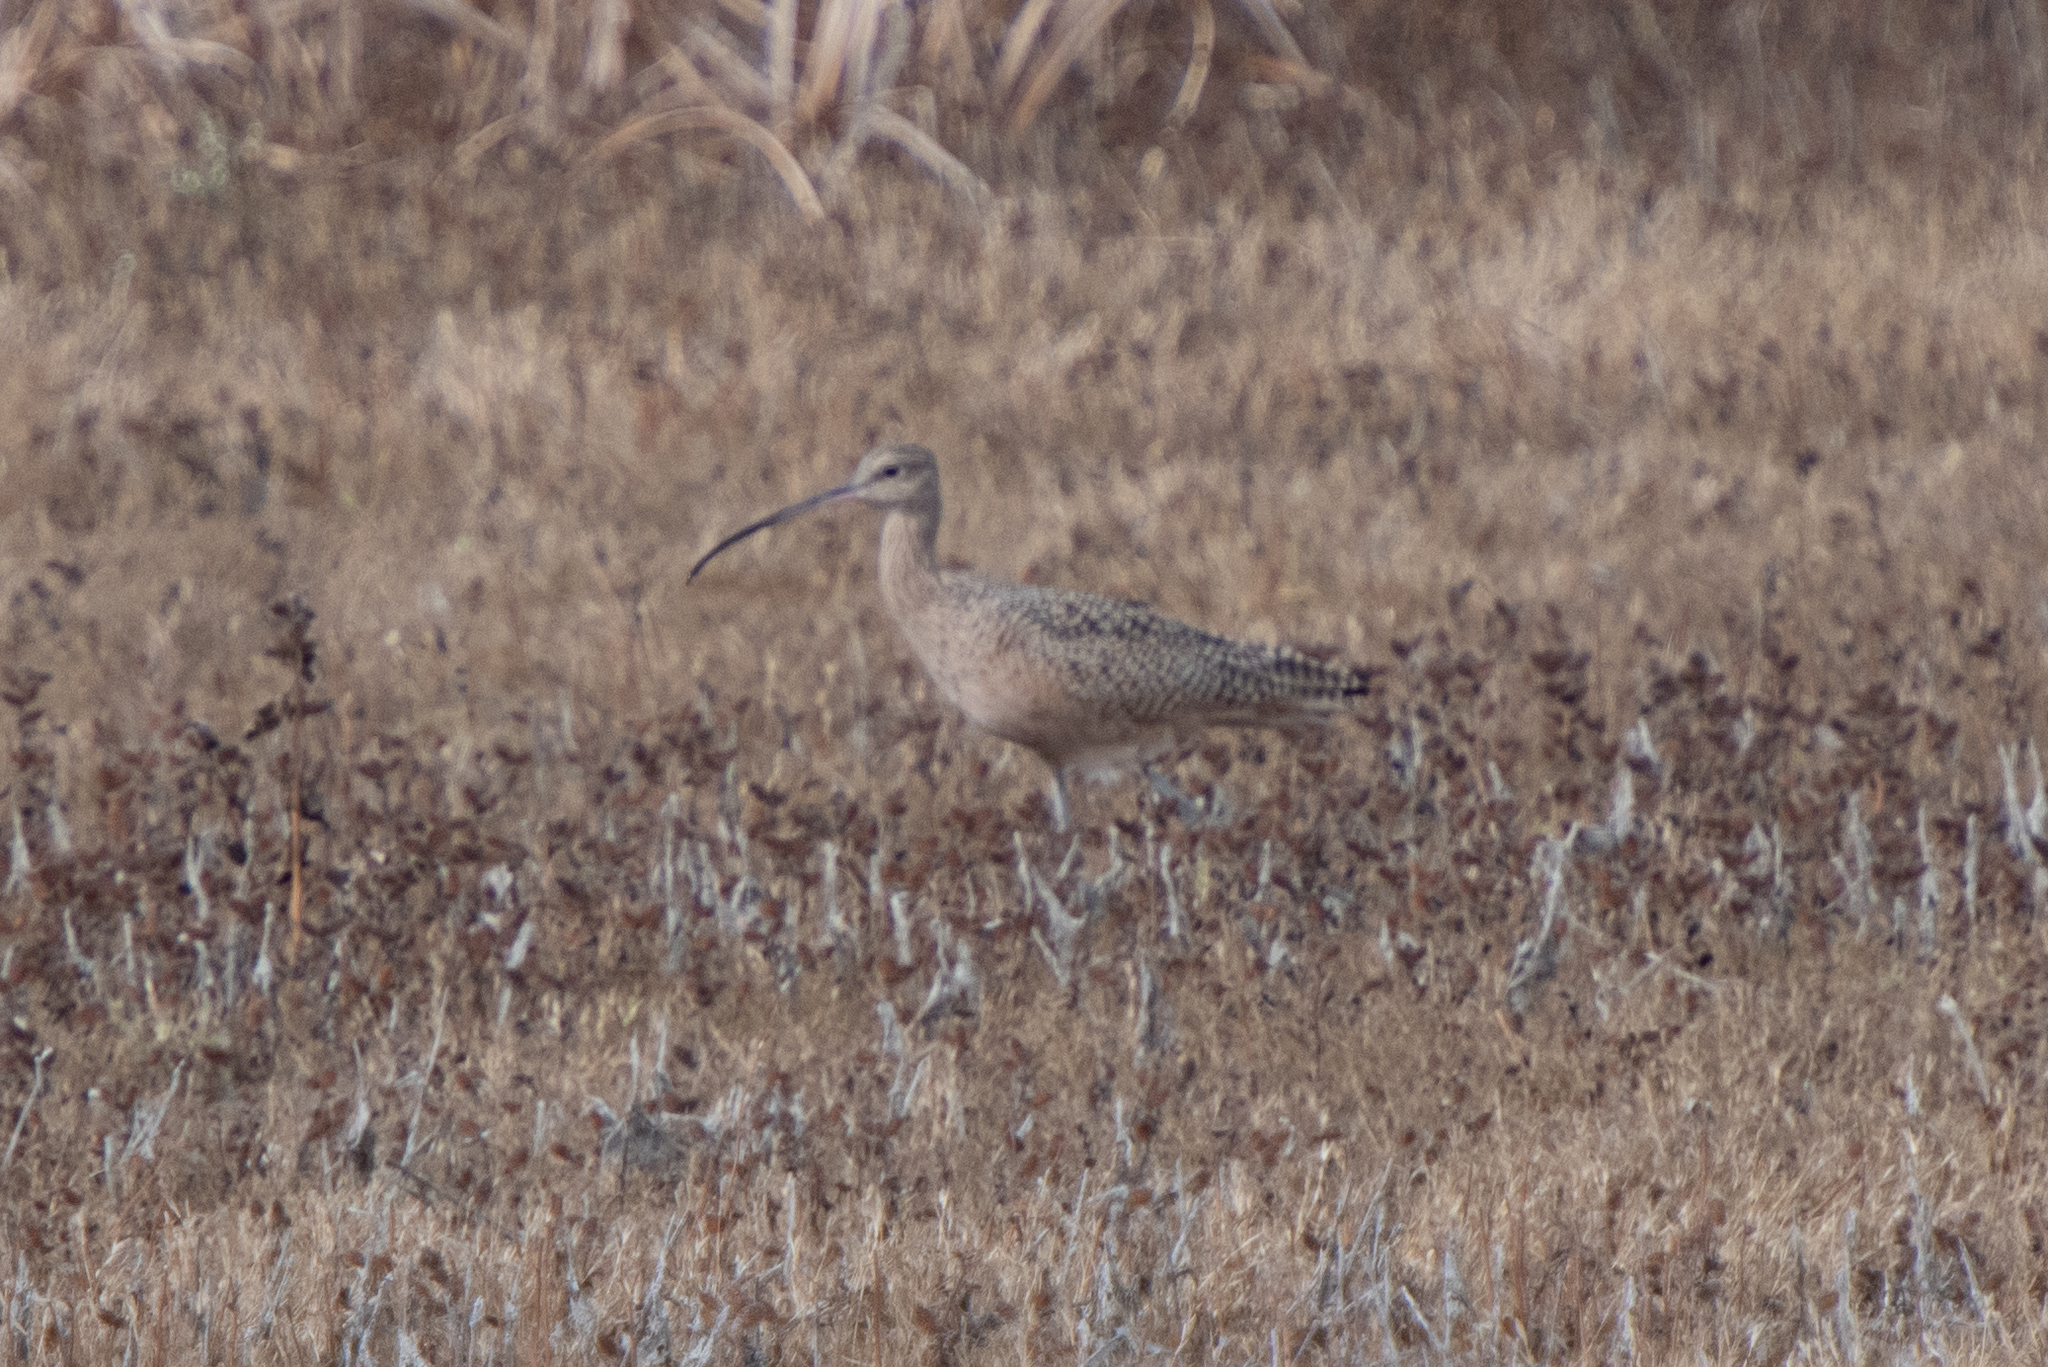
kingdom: Animalia
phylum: Chordata
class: Aves
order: Charadriiformes
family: Scolopacidae
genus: Numenius
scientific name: Numenius americanus
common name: Long-billed curlew
